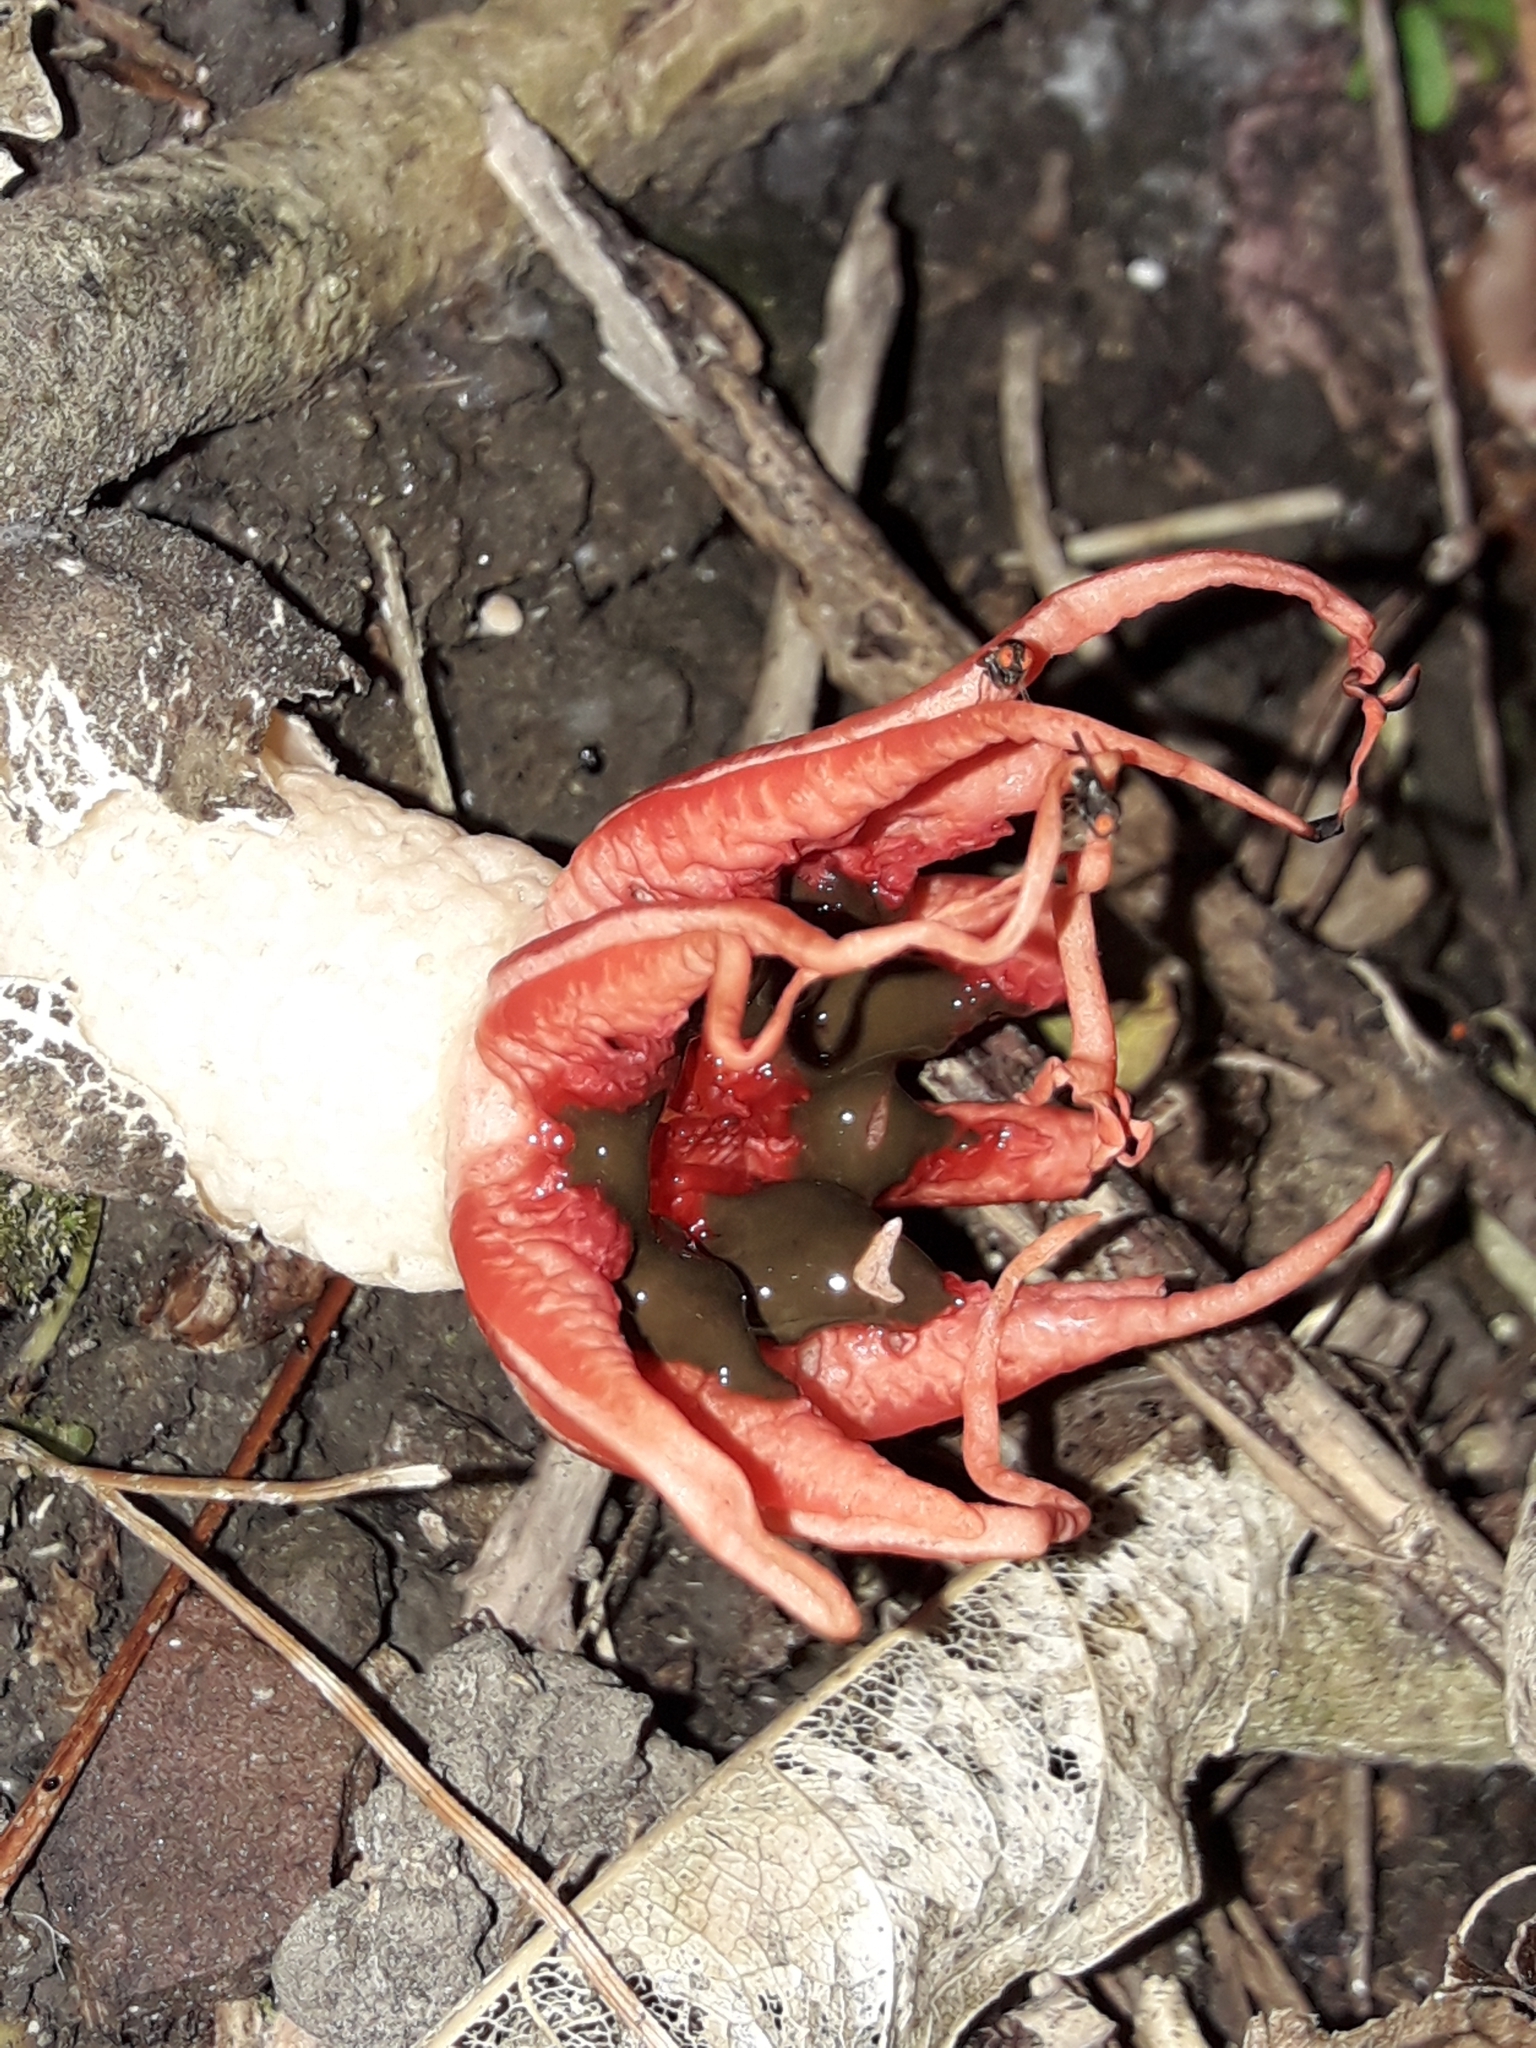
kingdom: Fungi
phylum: Basidiomycota
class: Agaricomycetes
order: Phallales
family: Phallaceae
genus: Aseroe
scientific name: Aseroe rubra
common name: Starfish fungus
